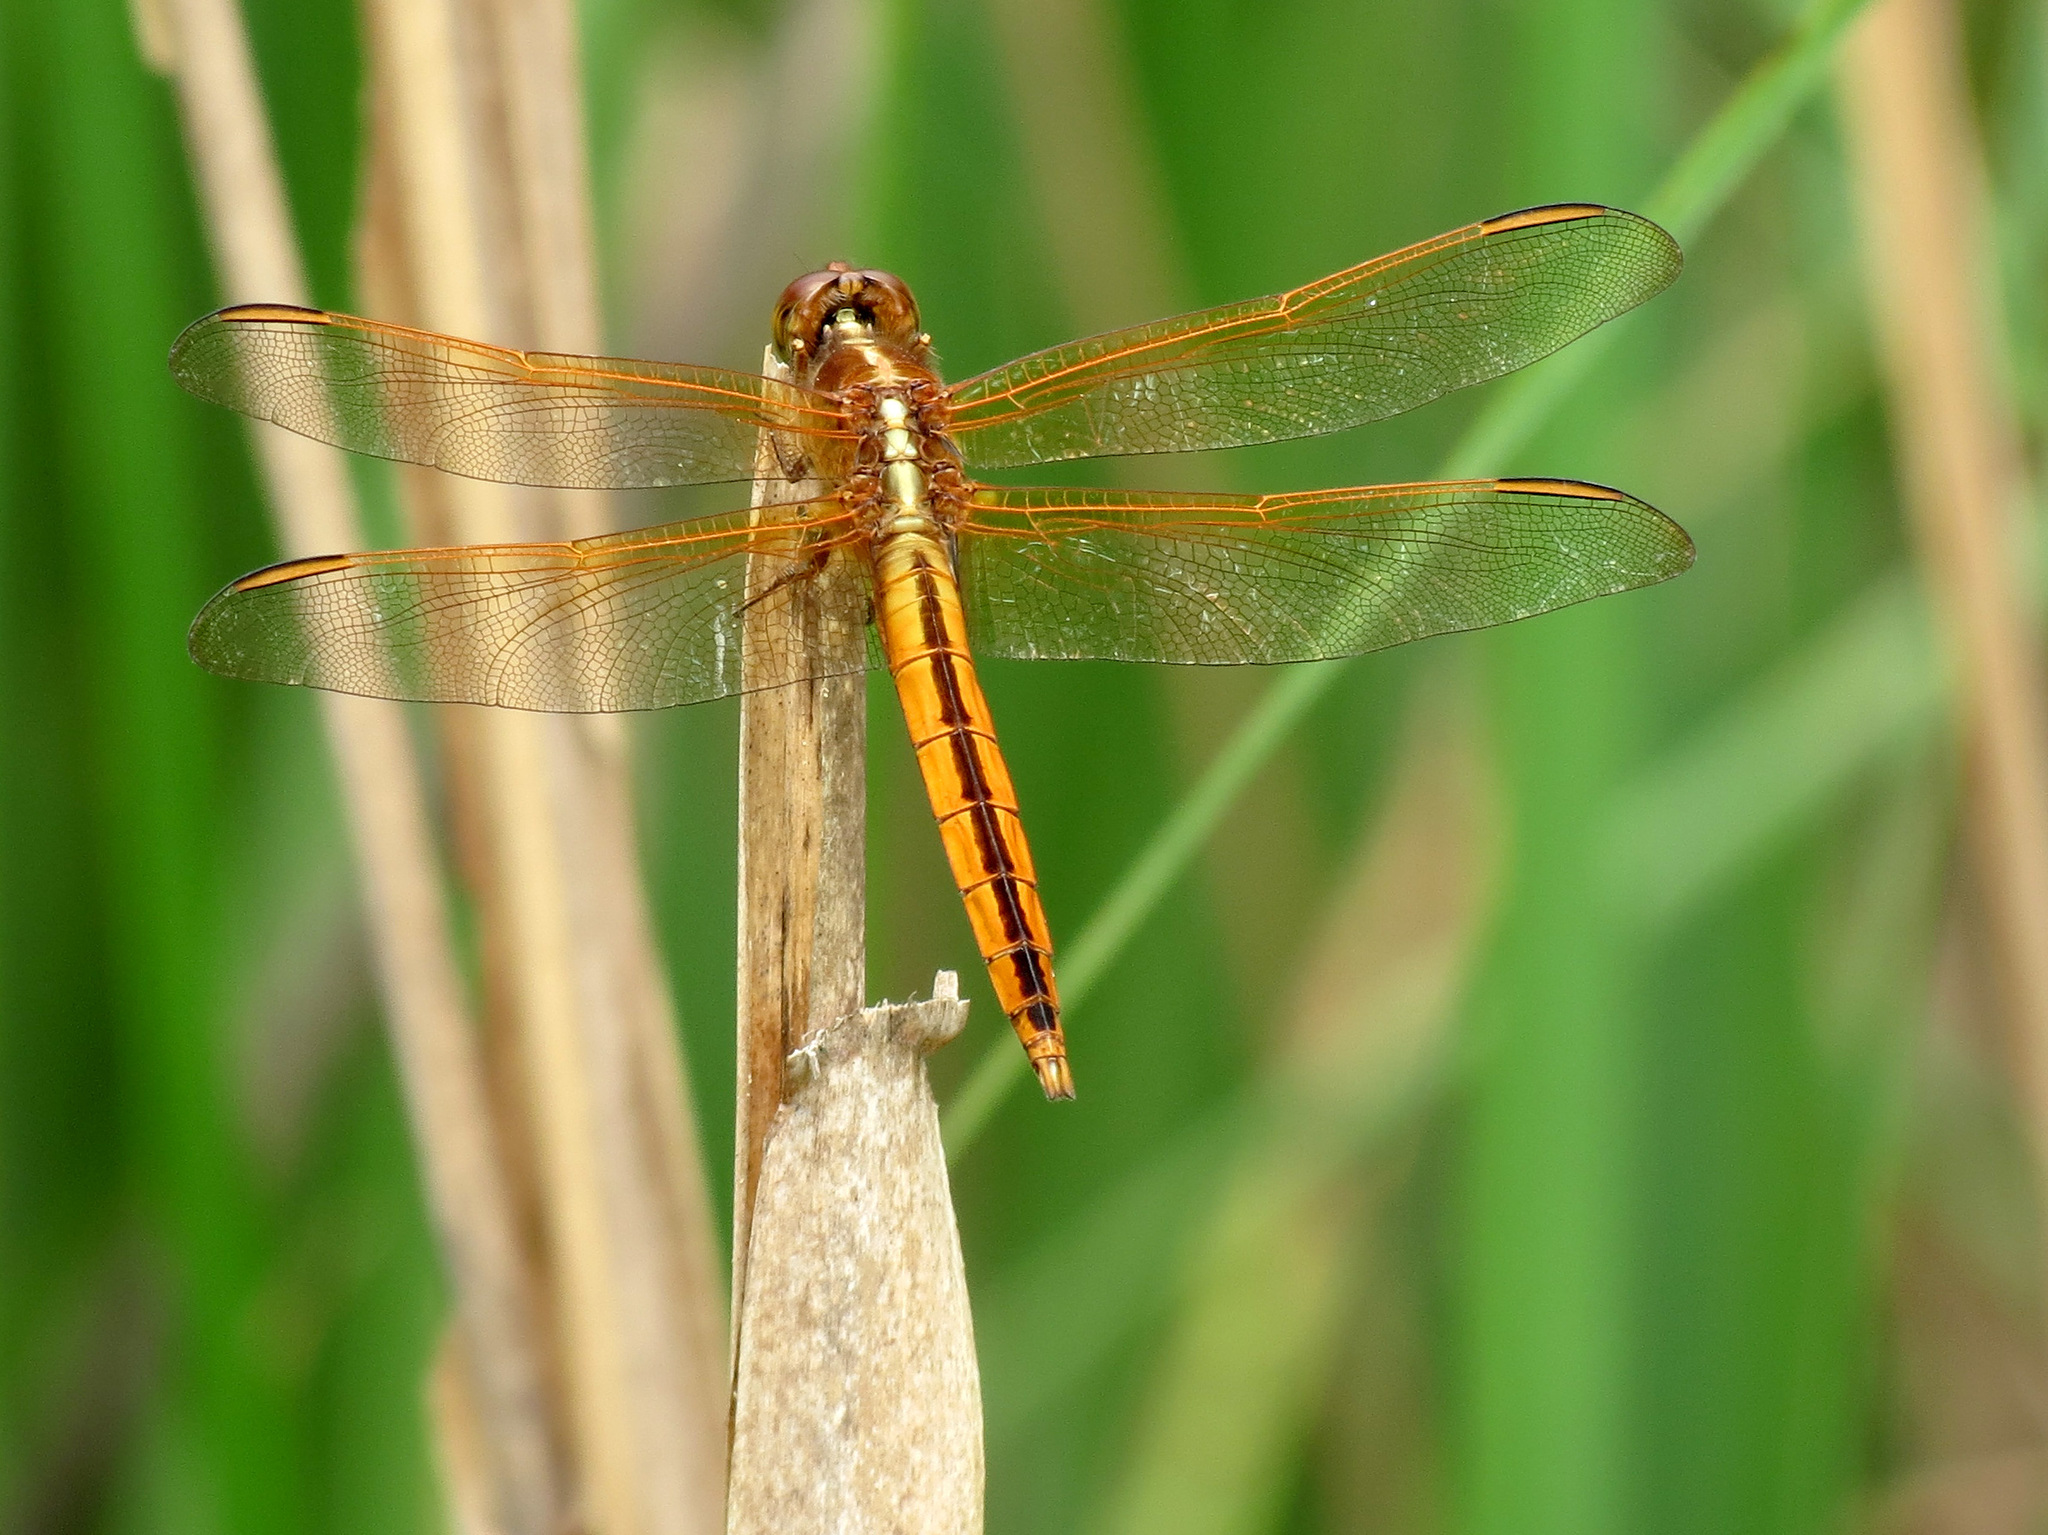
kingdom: Animalia
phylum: Arthropoda
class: Insecta
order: Odonata
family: Libellulidae
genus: Libellula
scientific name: Libellula needhami
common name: Needham's skimmer
